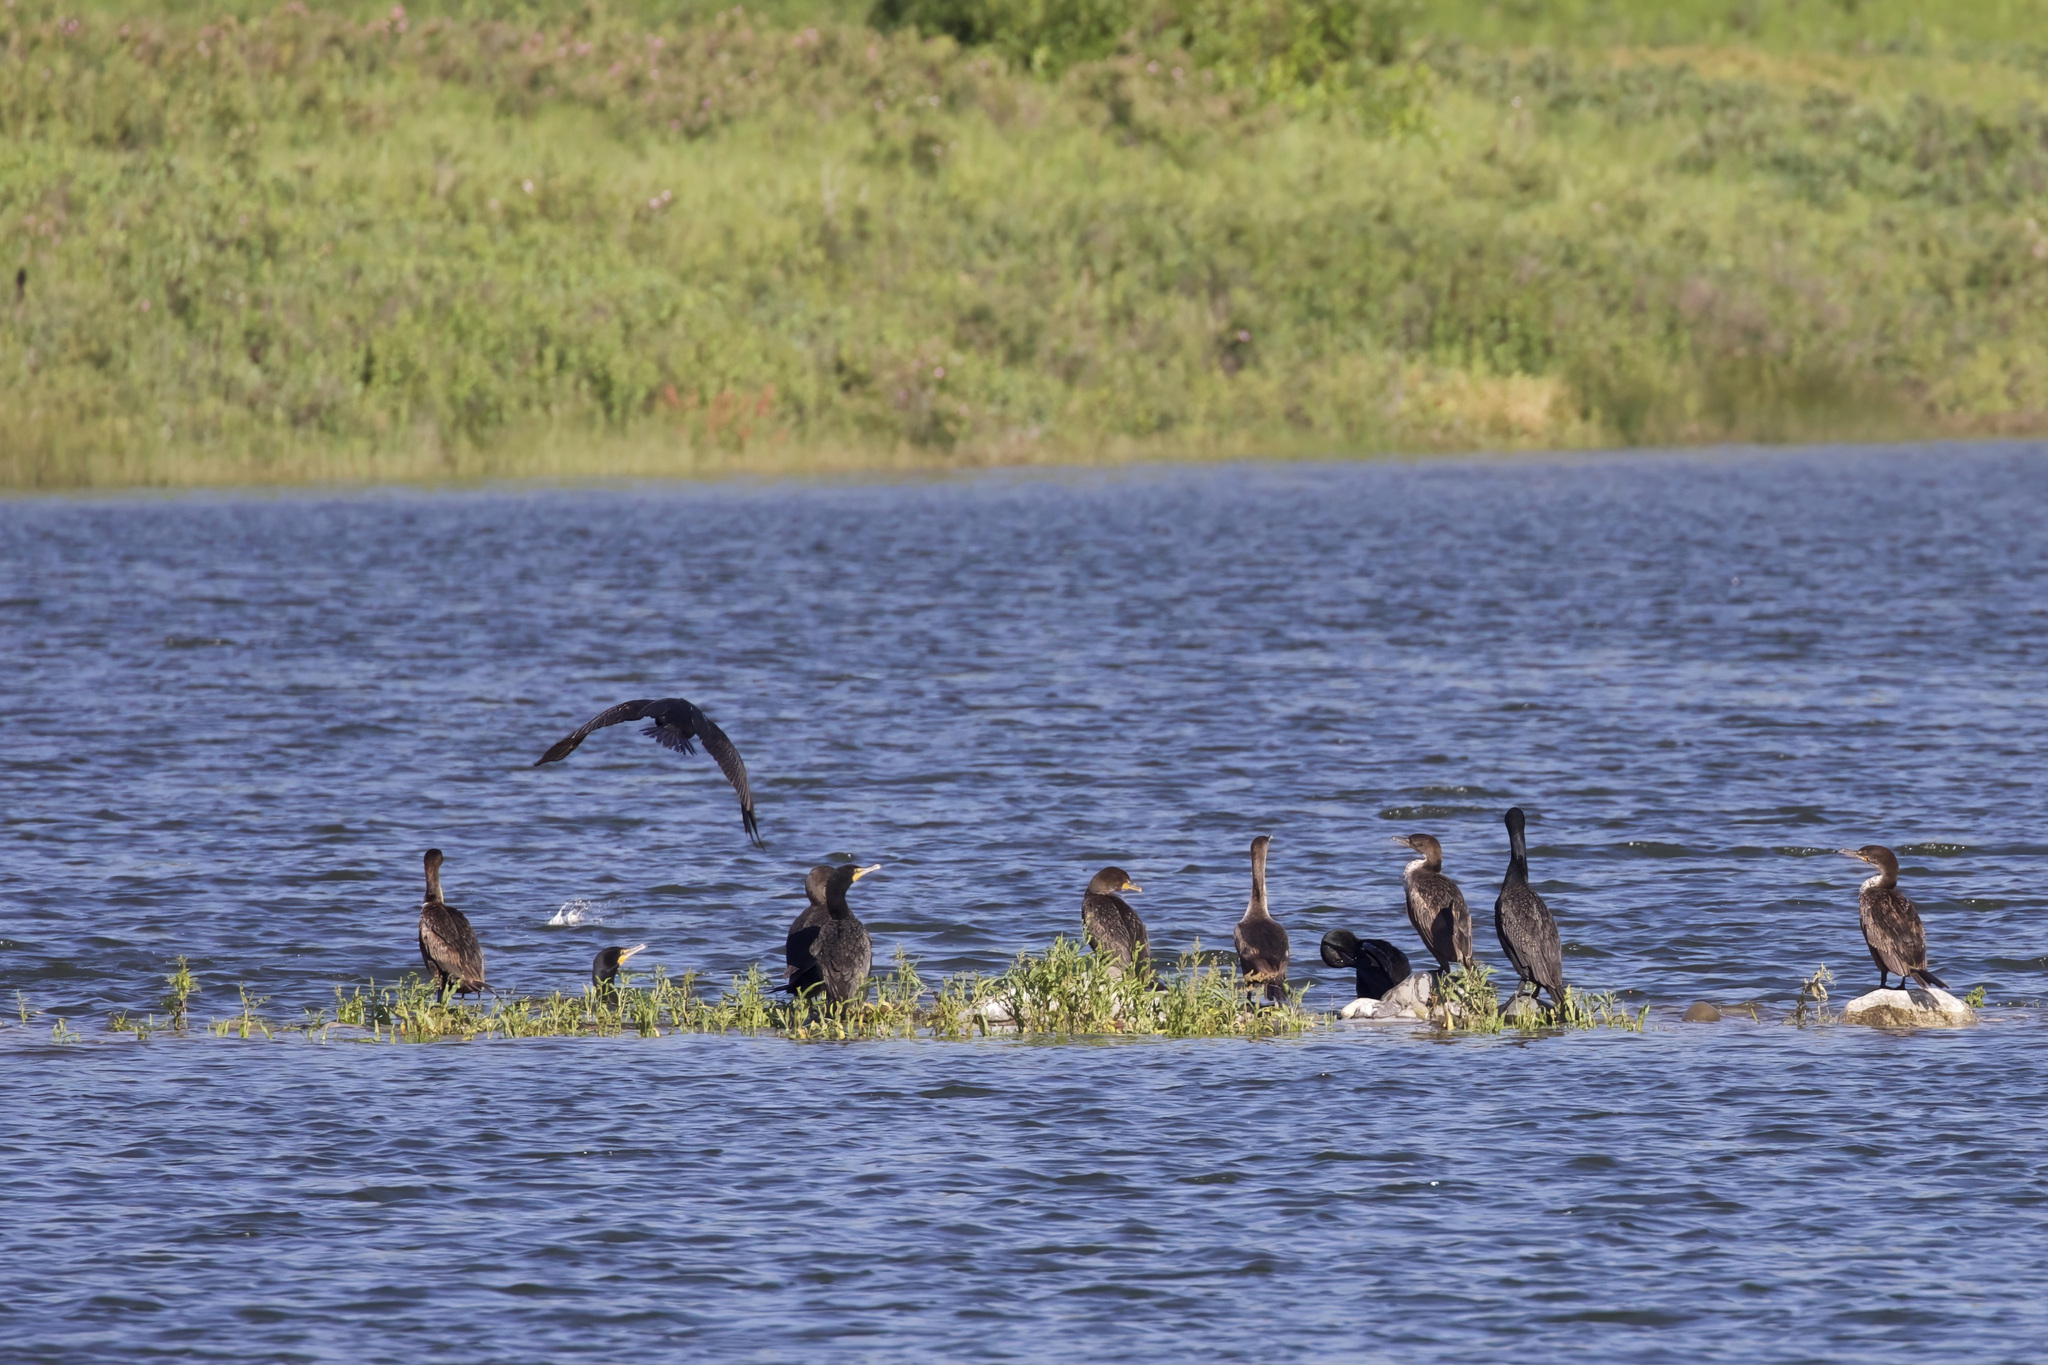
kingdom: Animalia
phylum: Chordata
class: Aves
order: Suliformes
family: Phalacrocoracidae
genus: Phalacrocorax
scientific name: Phalacrocorax auritus
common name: Double-crested cormorant
